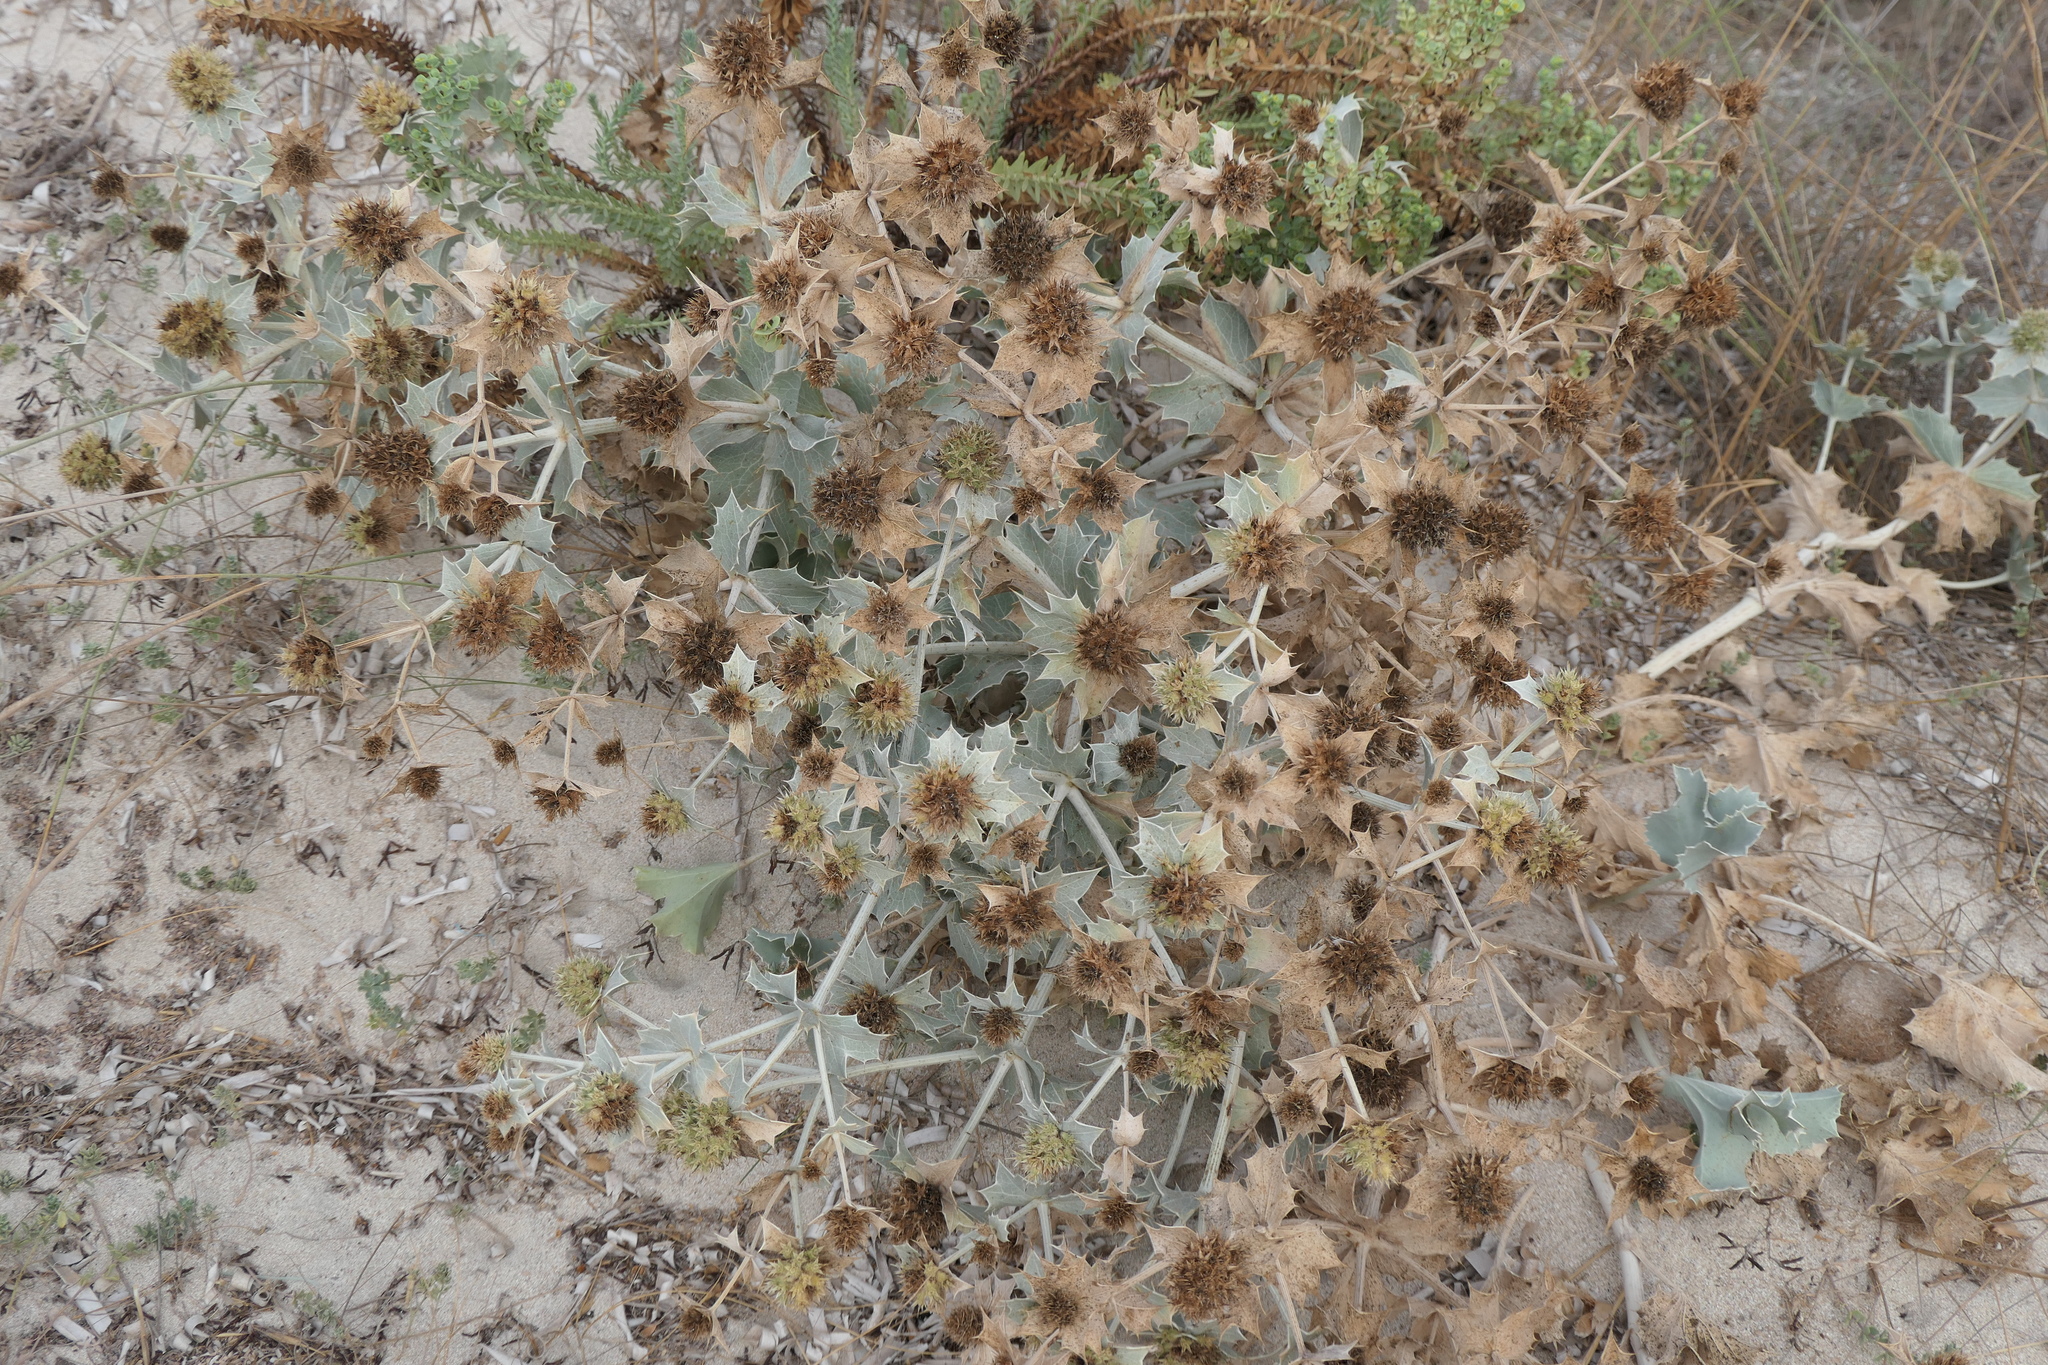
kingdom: Plantae
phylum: Tracheophyta
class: Magnoliopsida
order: Apiales
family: Apiaceae
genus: Eryngium
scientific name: Eryngium maritimum
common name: Sea-holly
